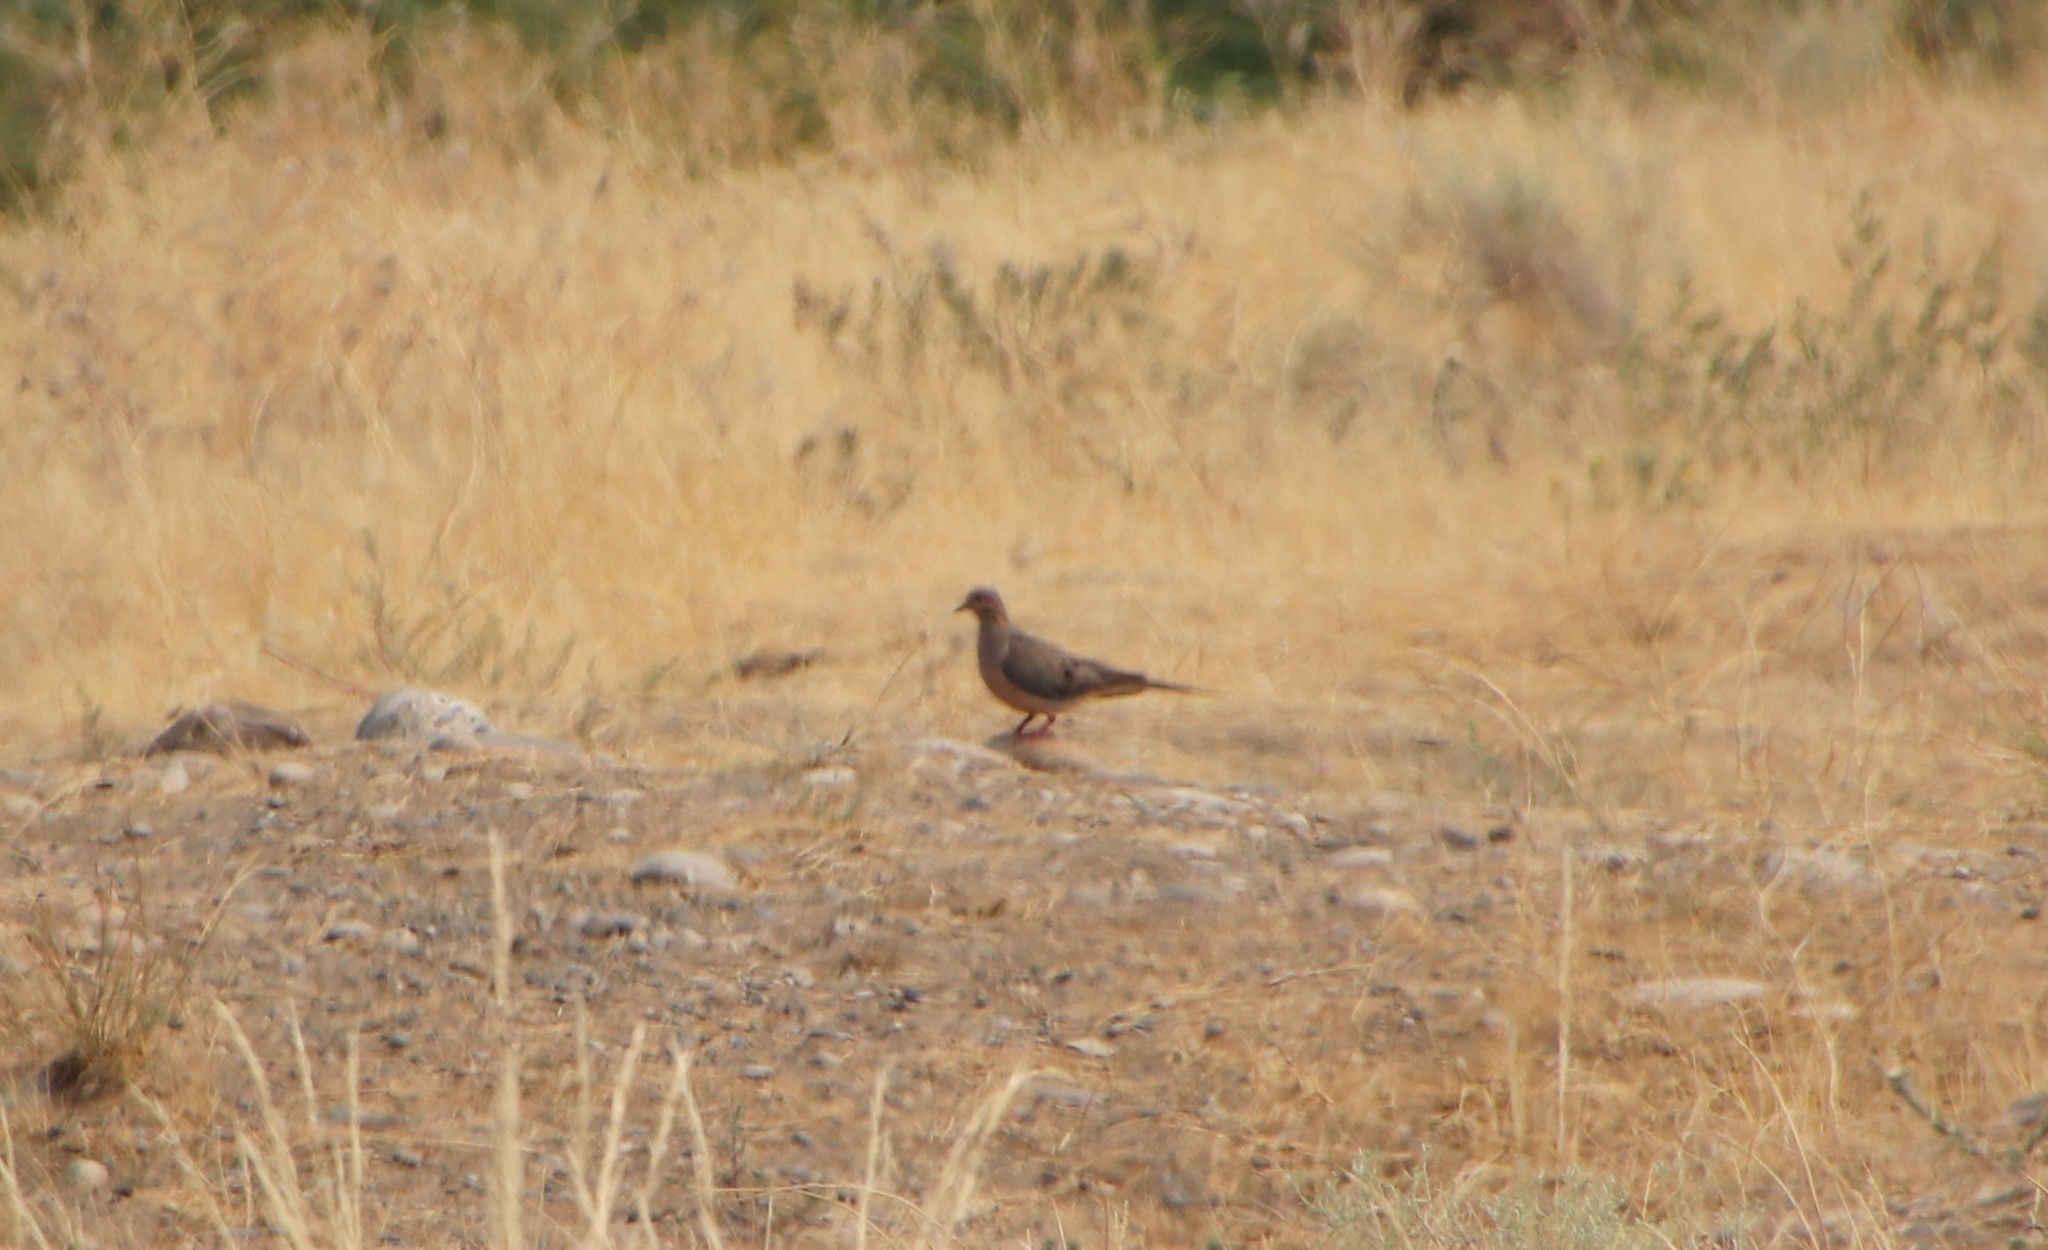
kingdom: Animalia
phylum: Chordata
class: Aves
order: Columbiformes
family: Columbidae
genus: Zenaida
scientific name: Zenaida macroura
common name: Mourning dove
